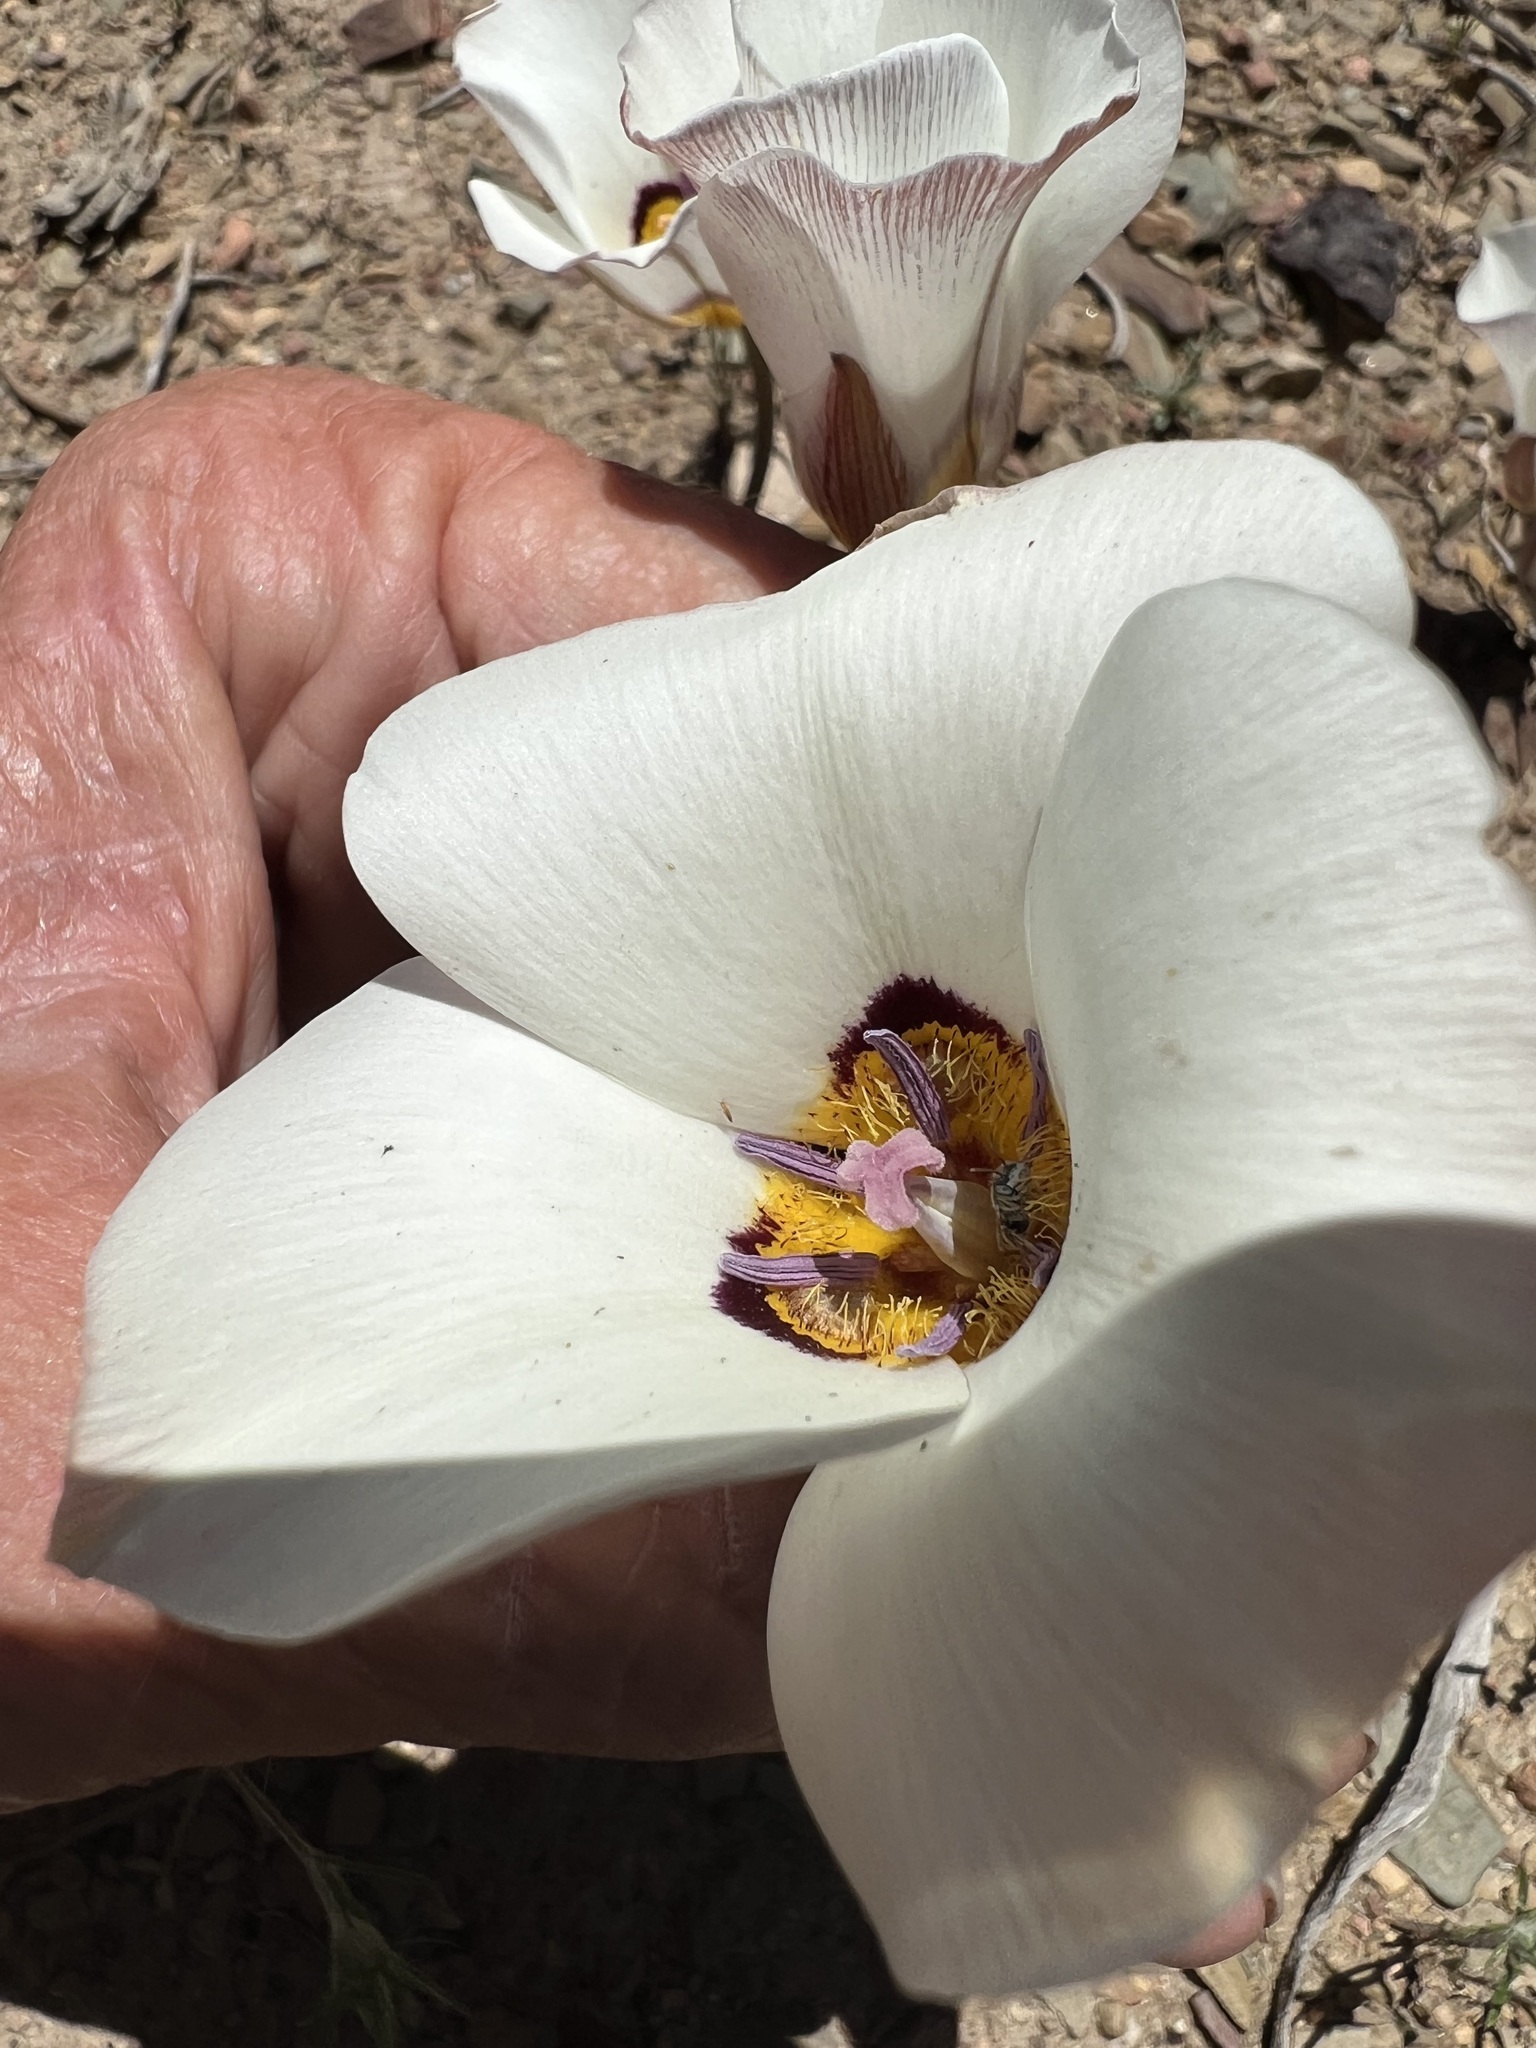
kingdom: Plantae
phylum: Tracheophyta
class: Liliopsida
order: Liliales
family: Liliaceae
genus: Calochortus
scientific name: Calochortus bruneaunis
